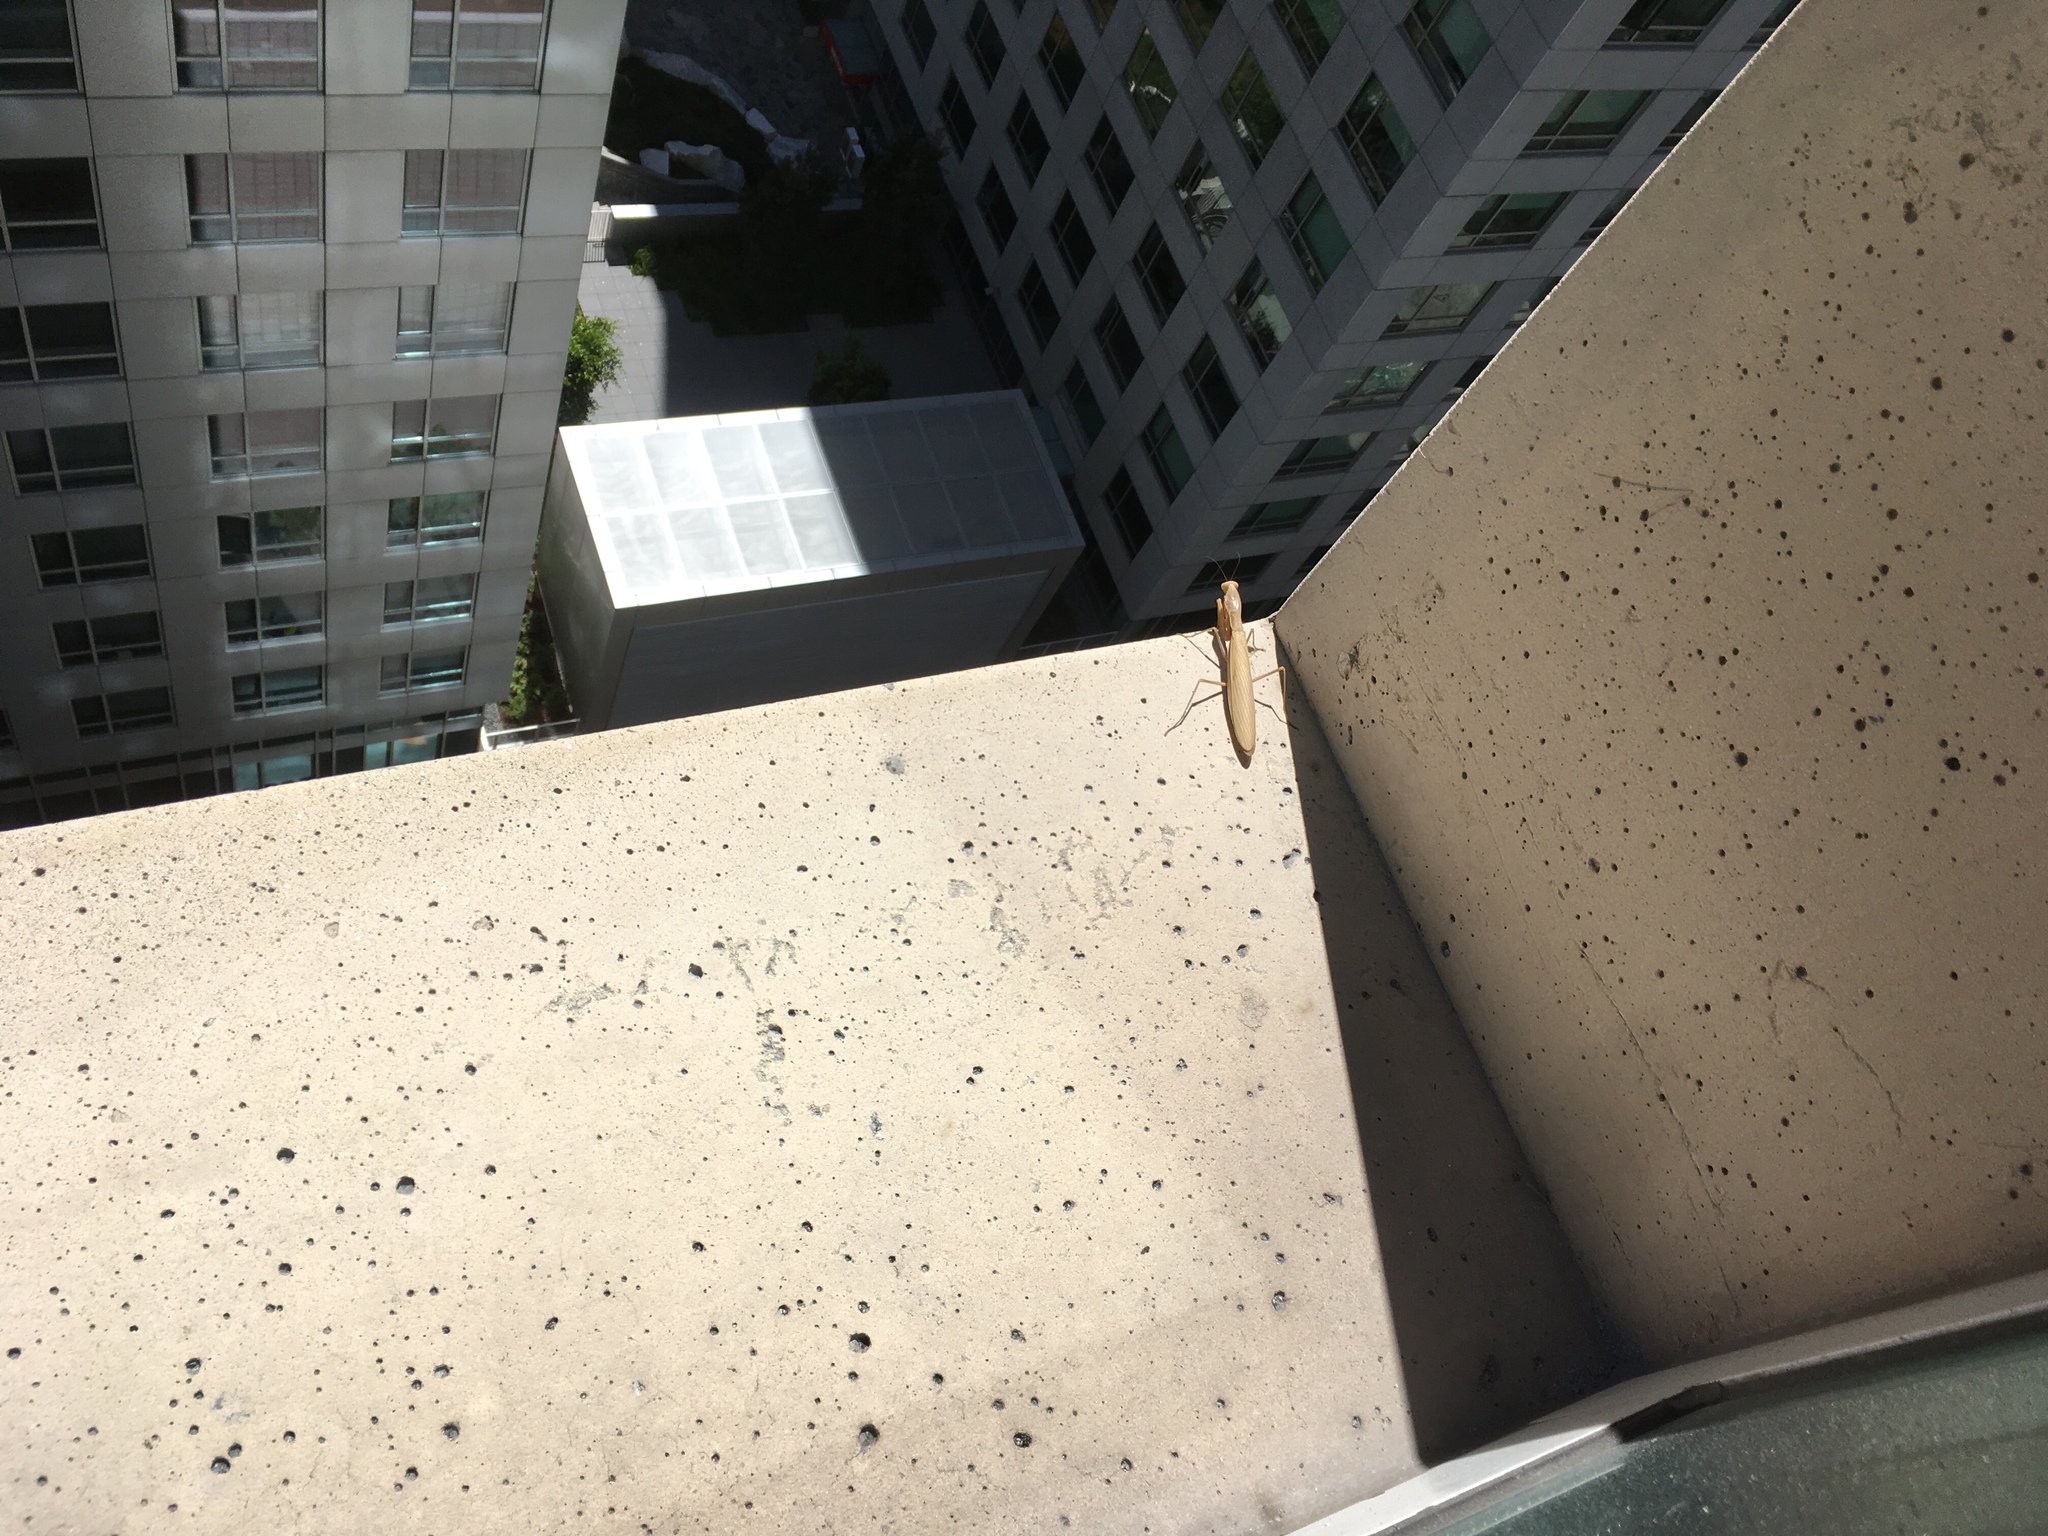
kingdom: Animalia
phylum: Arthropoda
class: Insecta
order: Mantodea
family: Mantidae
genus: Mantis
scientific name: Mantis religiosa
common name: Praying mantis
